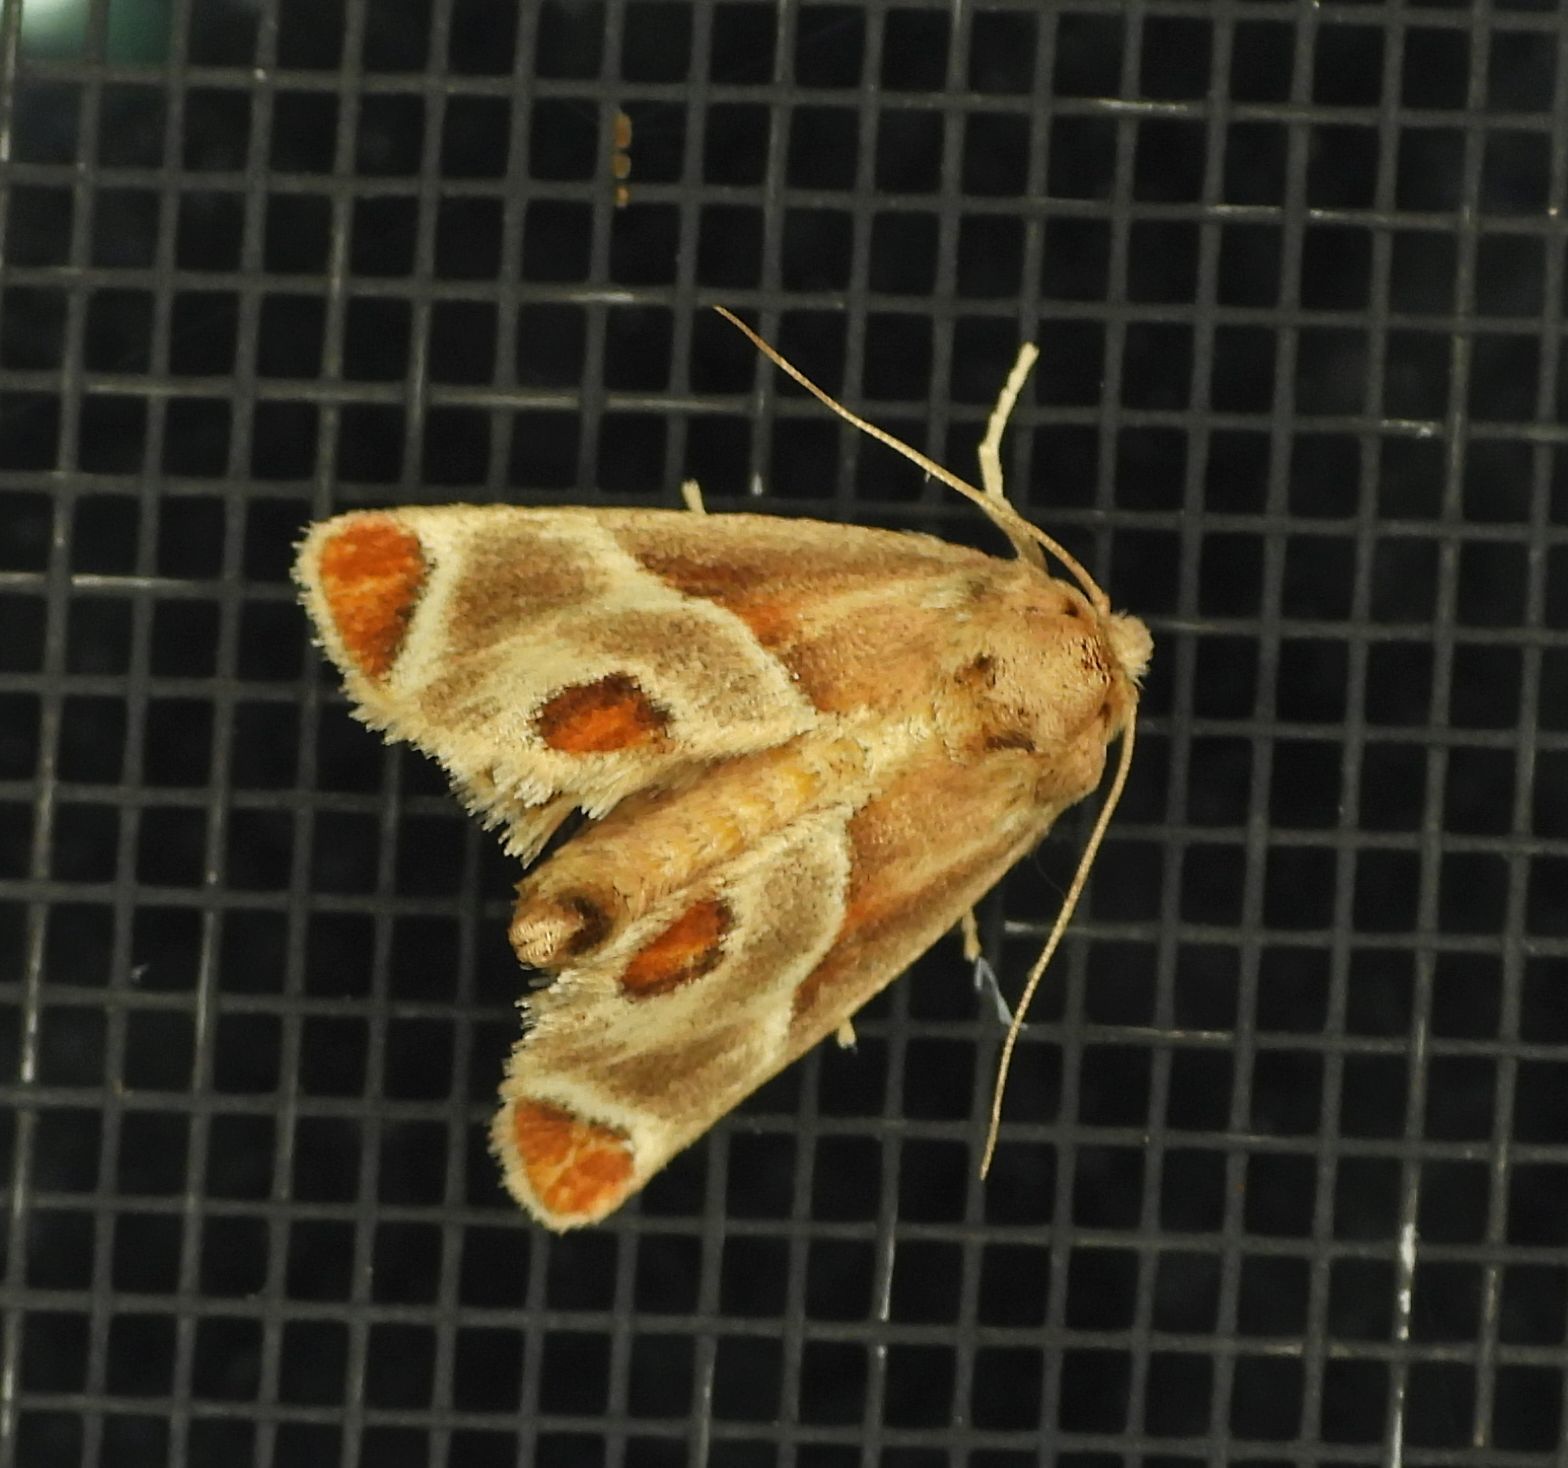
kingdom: Animalia
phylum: Arthropoda
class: Insecta
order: Lepidoptera
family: Limacodidae
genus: Apoda
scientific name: Apoda biguttata
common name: Shagreened slug moth
